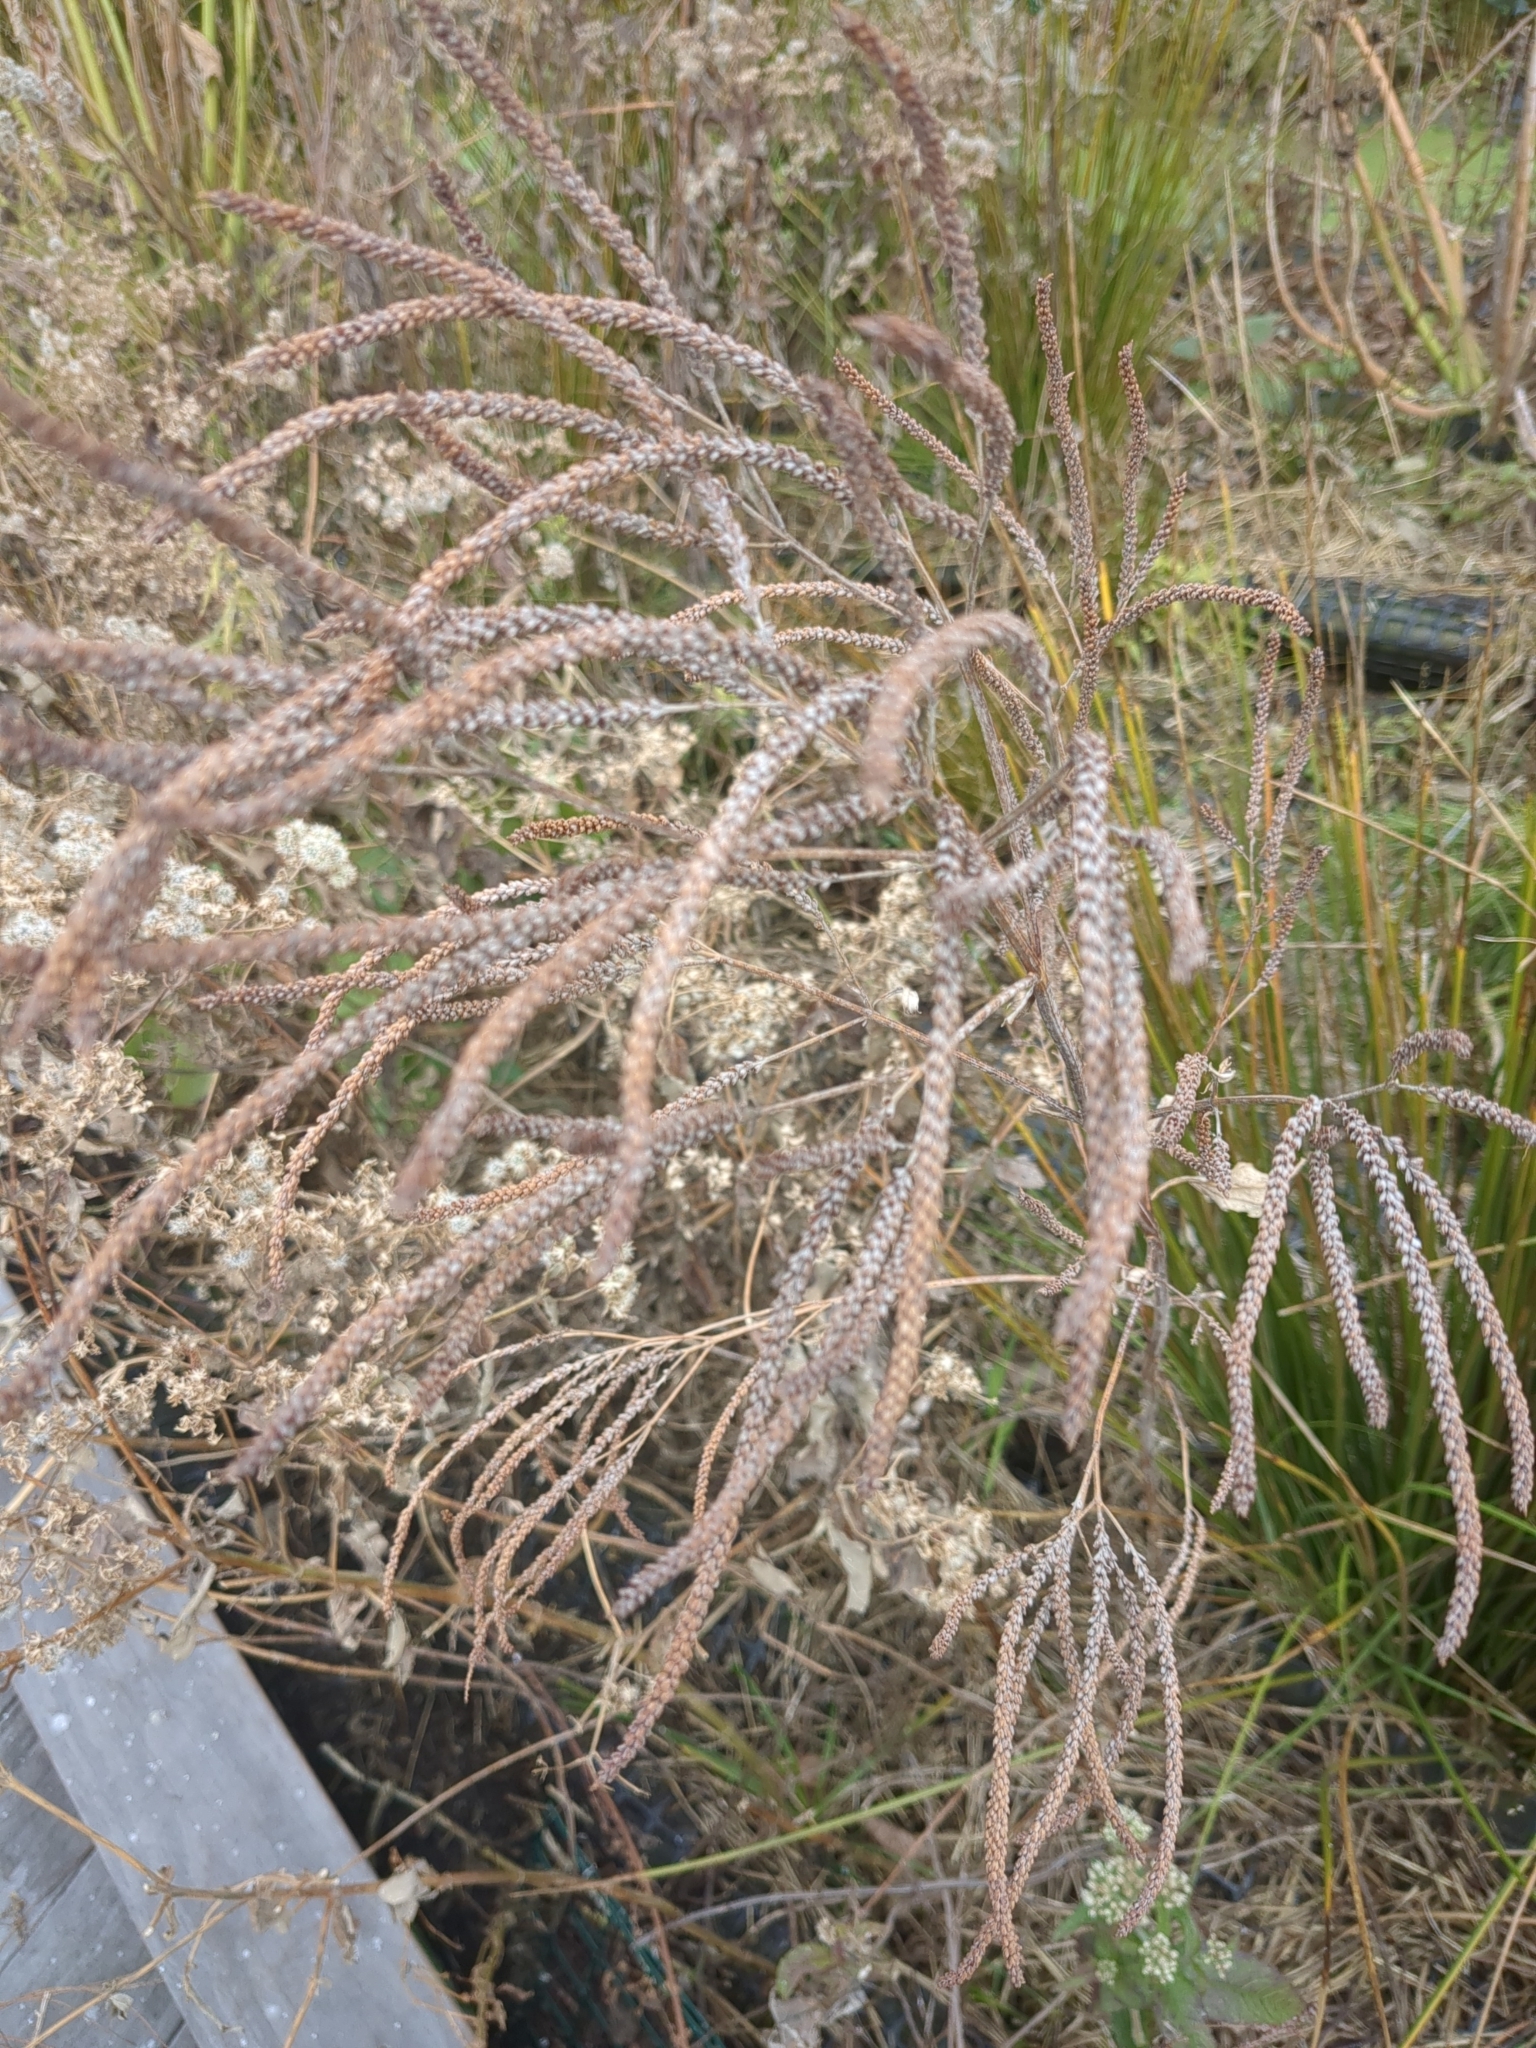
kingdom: Plantae
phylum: Tracheophyta
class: Magnoliopsida
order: Lamiales
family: Verbenaceae
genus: Verbena
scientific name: Verbena hastata
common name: American blue vervain
